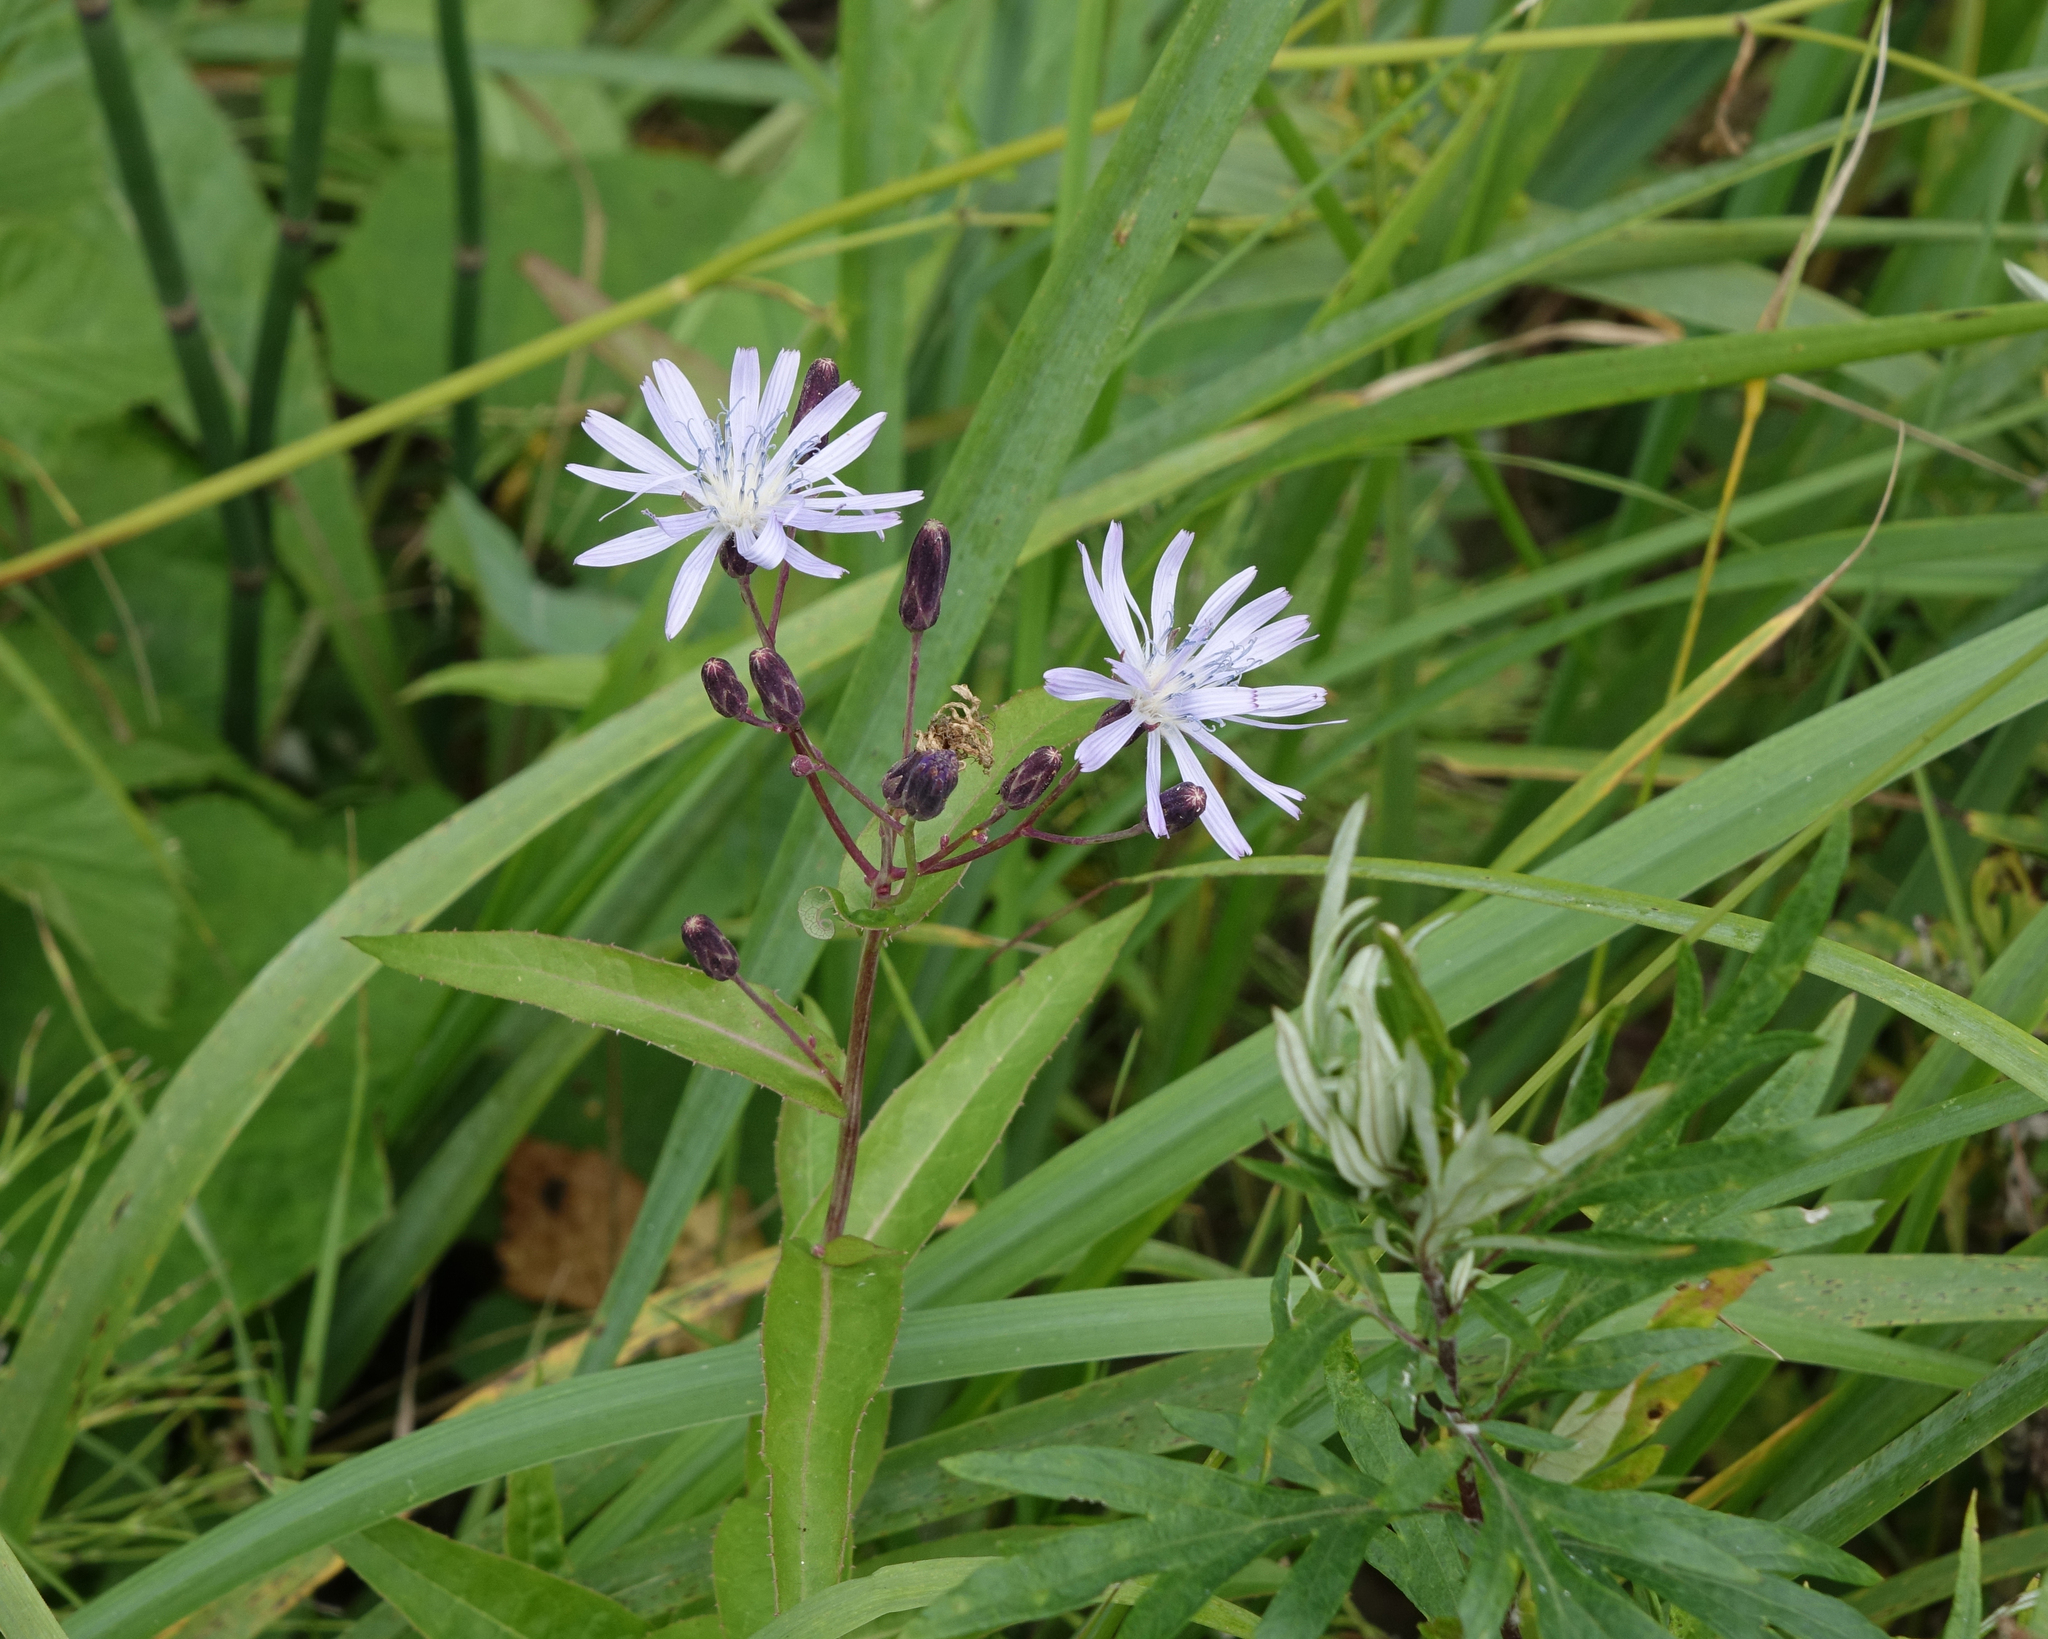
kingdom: Plantae
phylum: Tracheophyta
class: Magnoliopsida
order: Asterales
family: Asteraceae
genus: Lactuca
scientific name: Lactuca sibirica
